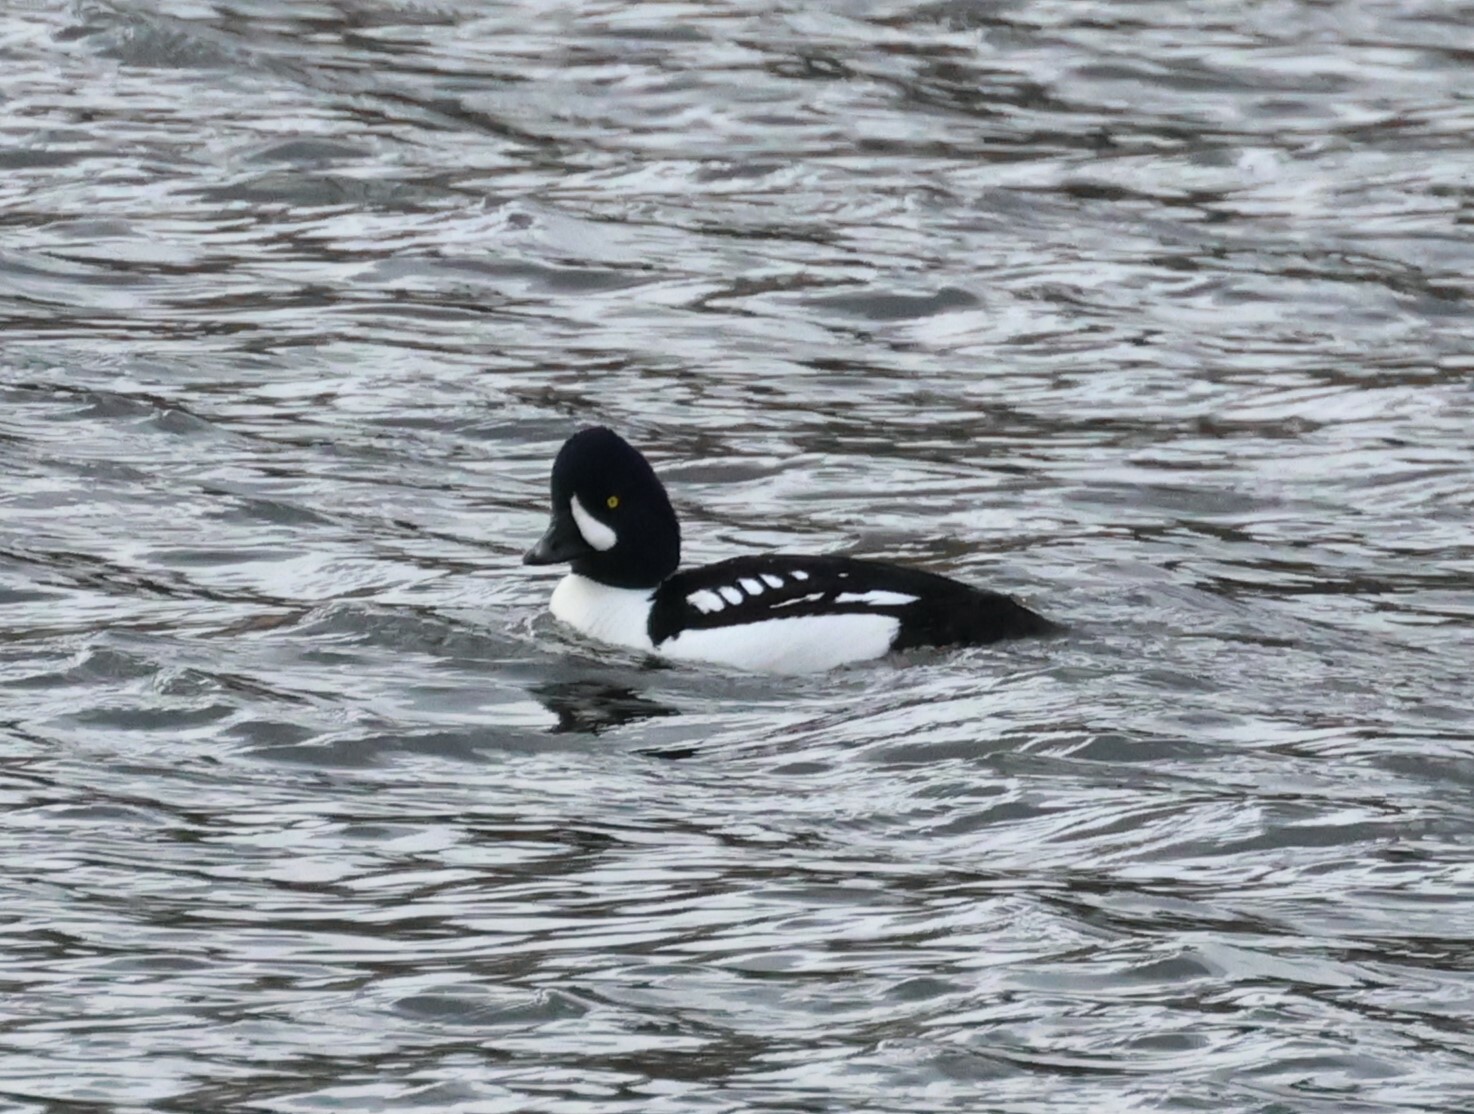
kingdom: Animalia
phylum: Chordata
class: Aves
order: Anseriformes
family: Anatidae
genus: Bucephala
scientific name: Bucephala islandica
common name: Barrow's goldeneye
